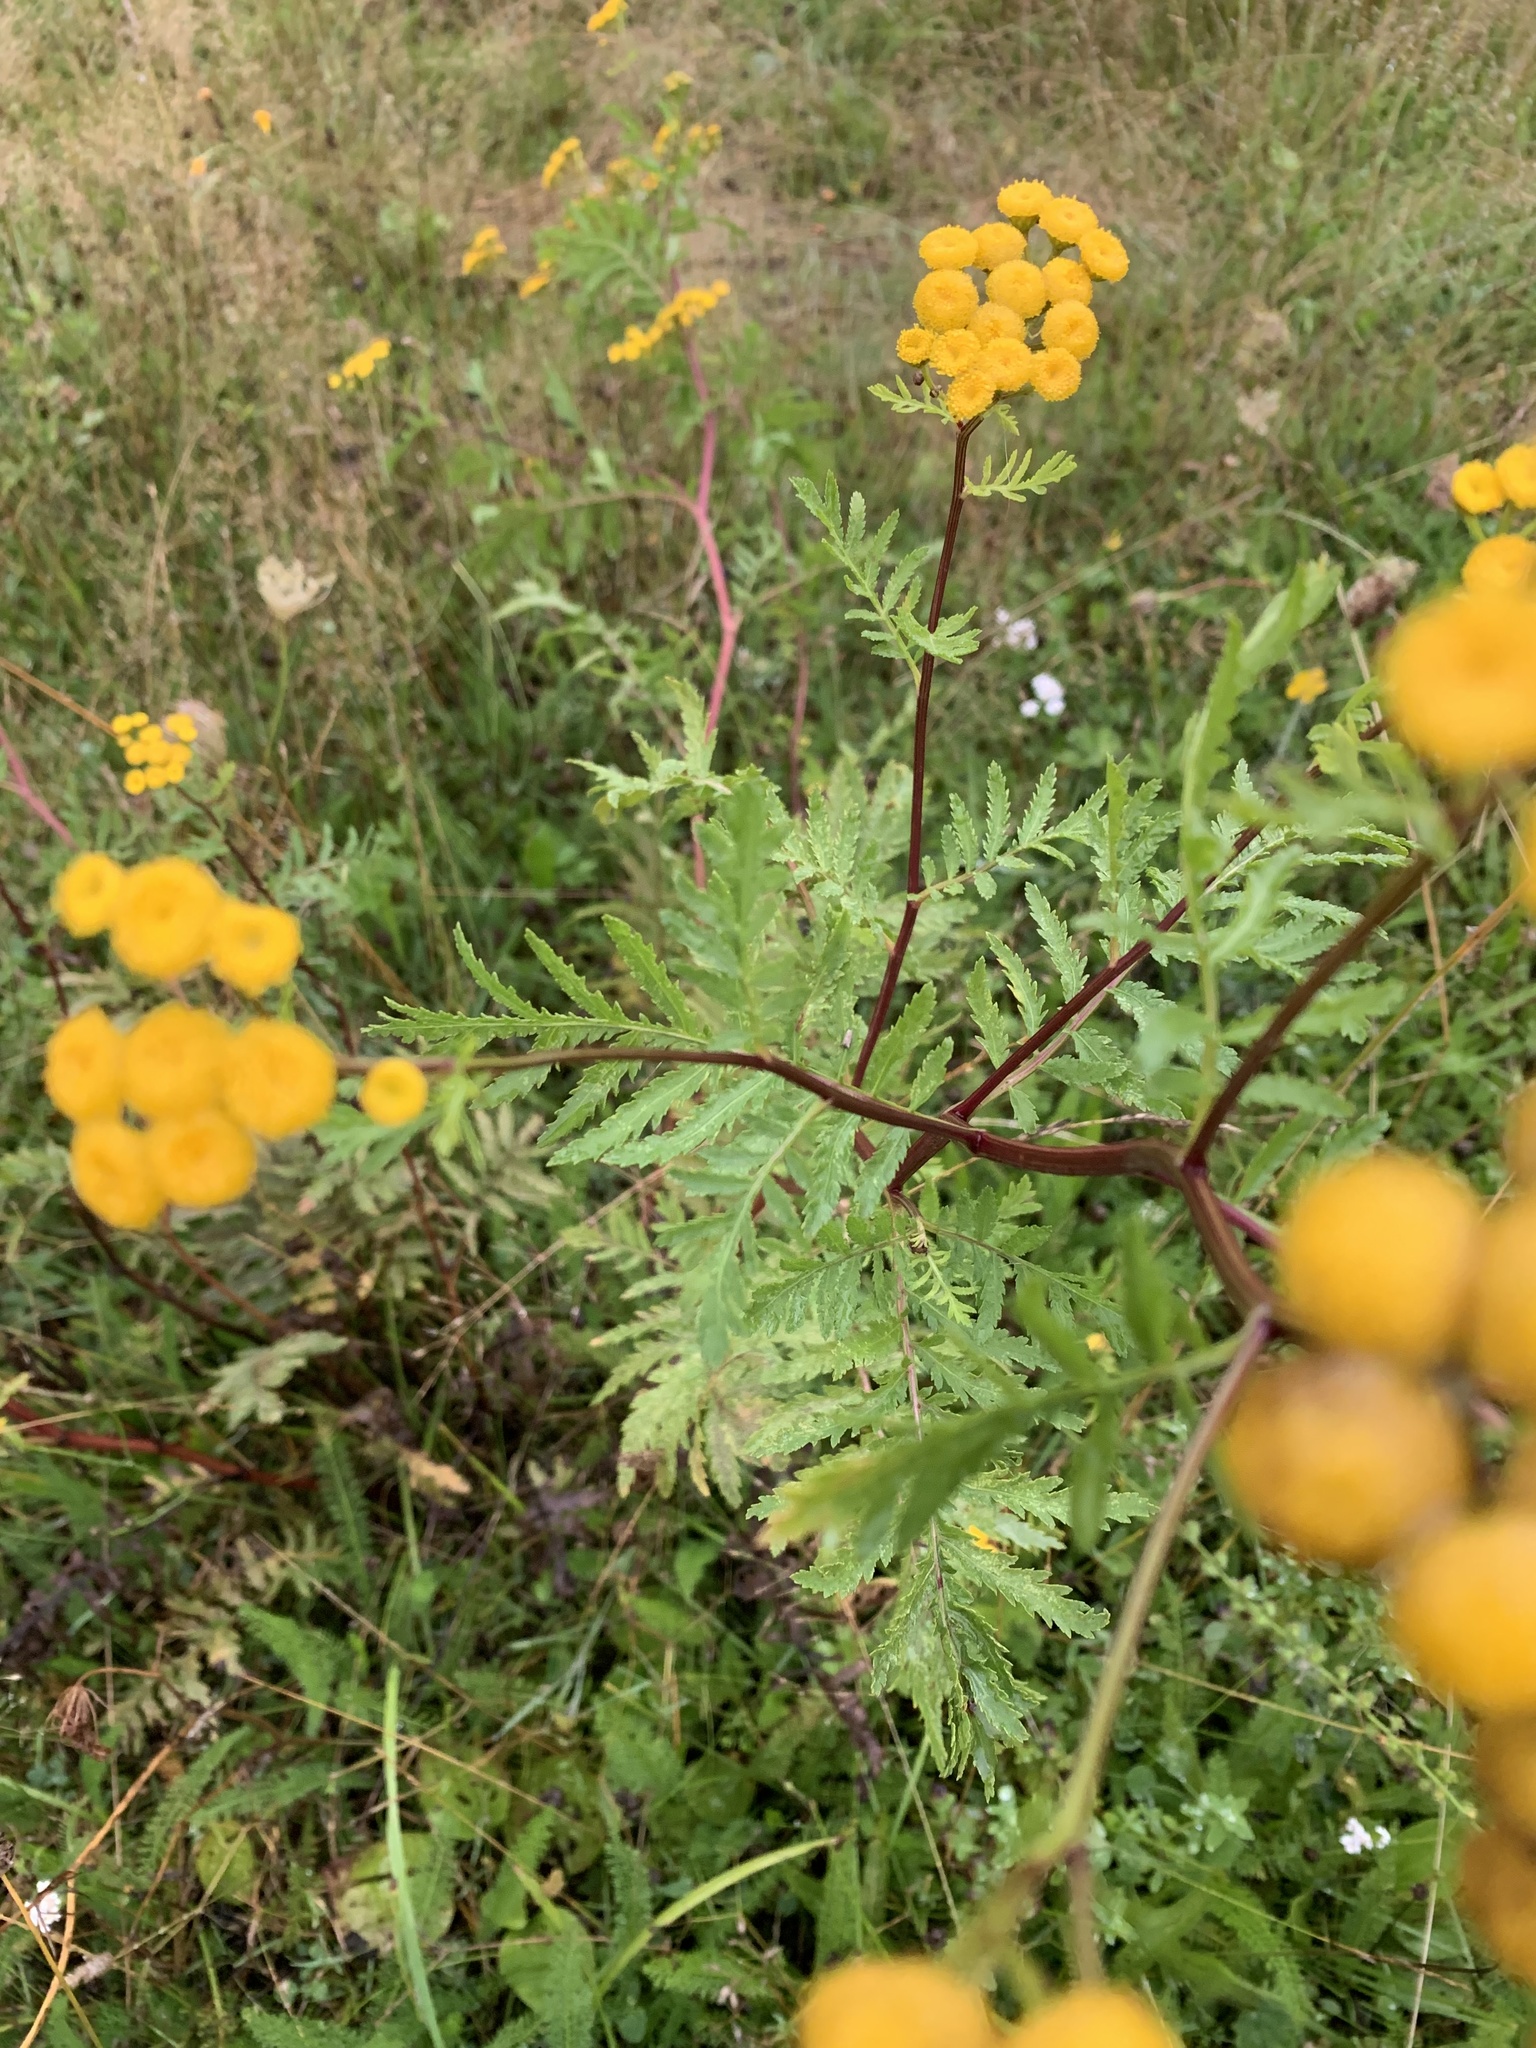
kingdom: Plantae
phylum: Tracheophyta
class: Magnoliopsida
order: Asterales
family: Asteraceae
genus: Tanacetum
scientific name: Tanacetum vulgare
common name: Common tansy
